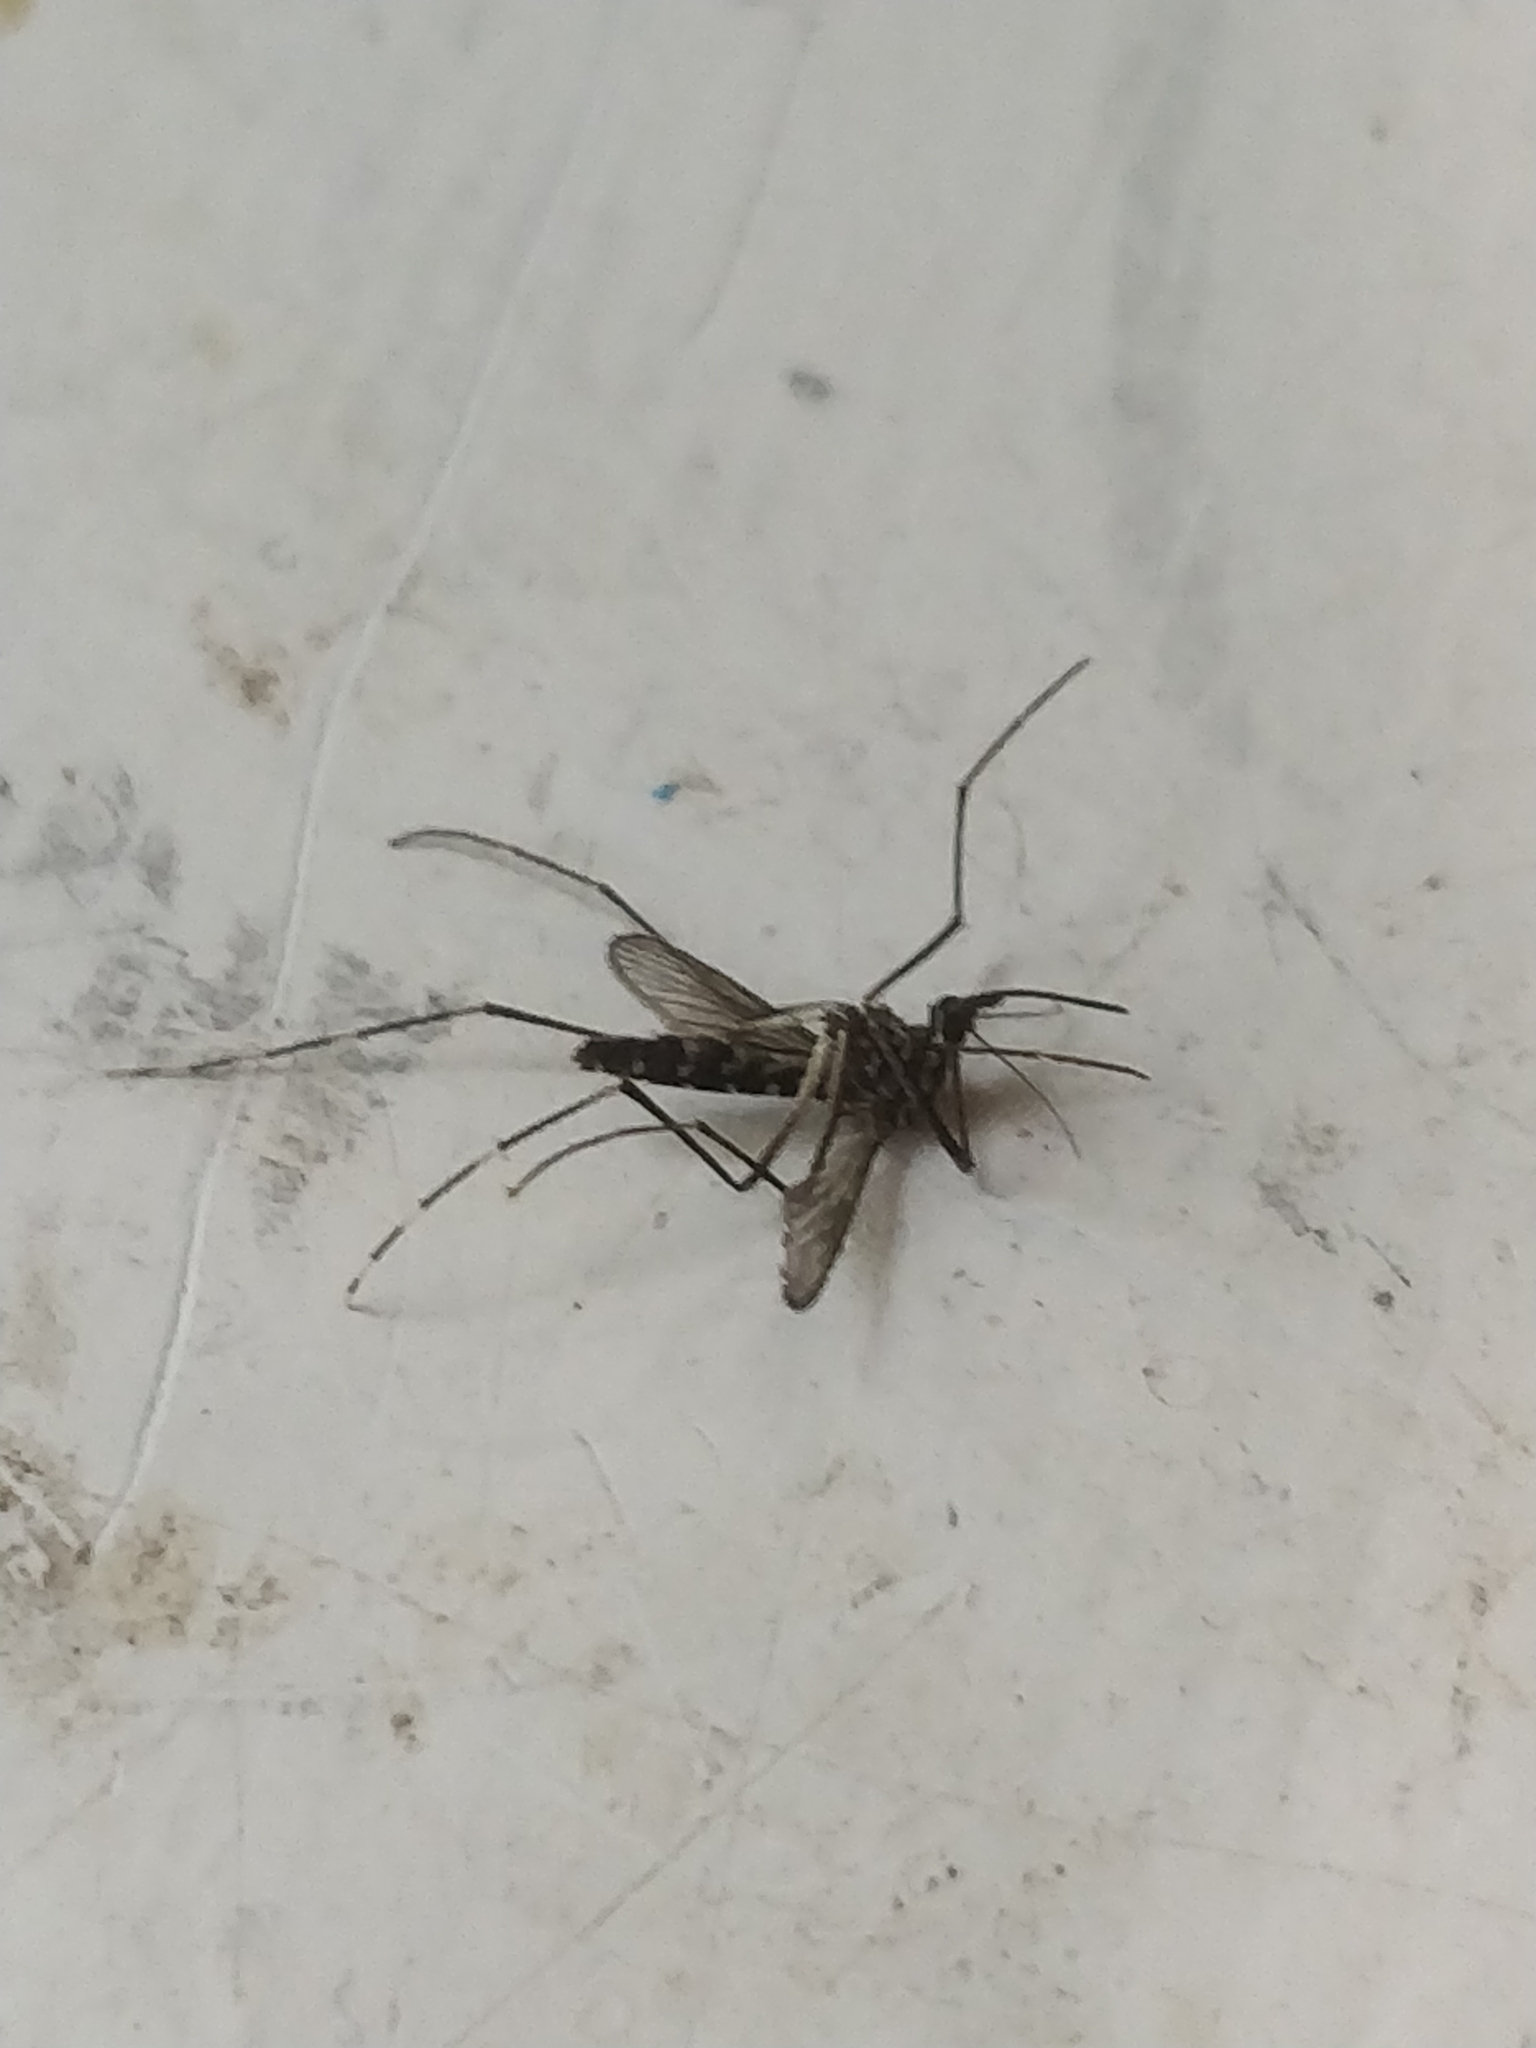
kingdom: Animalia
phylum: Arthropoda
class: Insecta
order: Diptera
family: Culicidae
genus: Aedes
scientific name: Aedes albopictus
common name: Tiger mosquito
